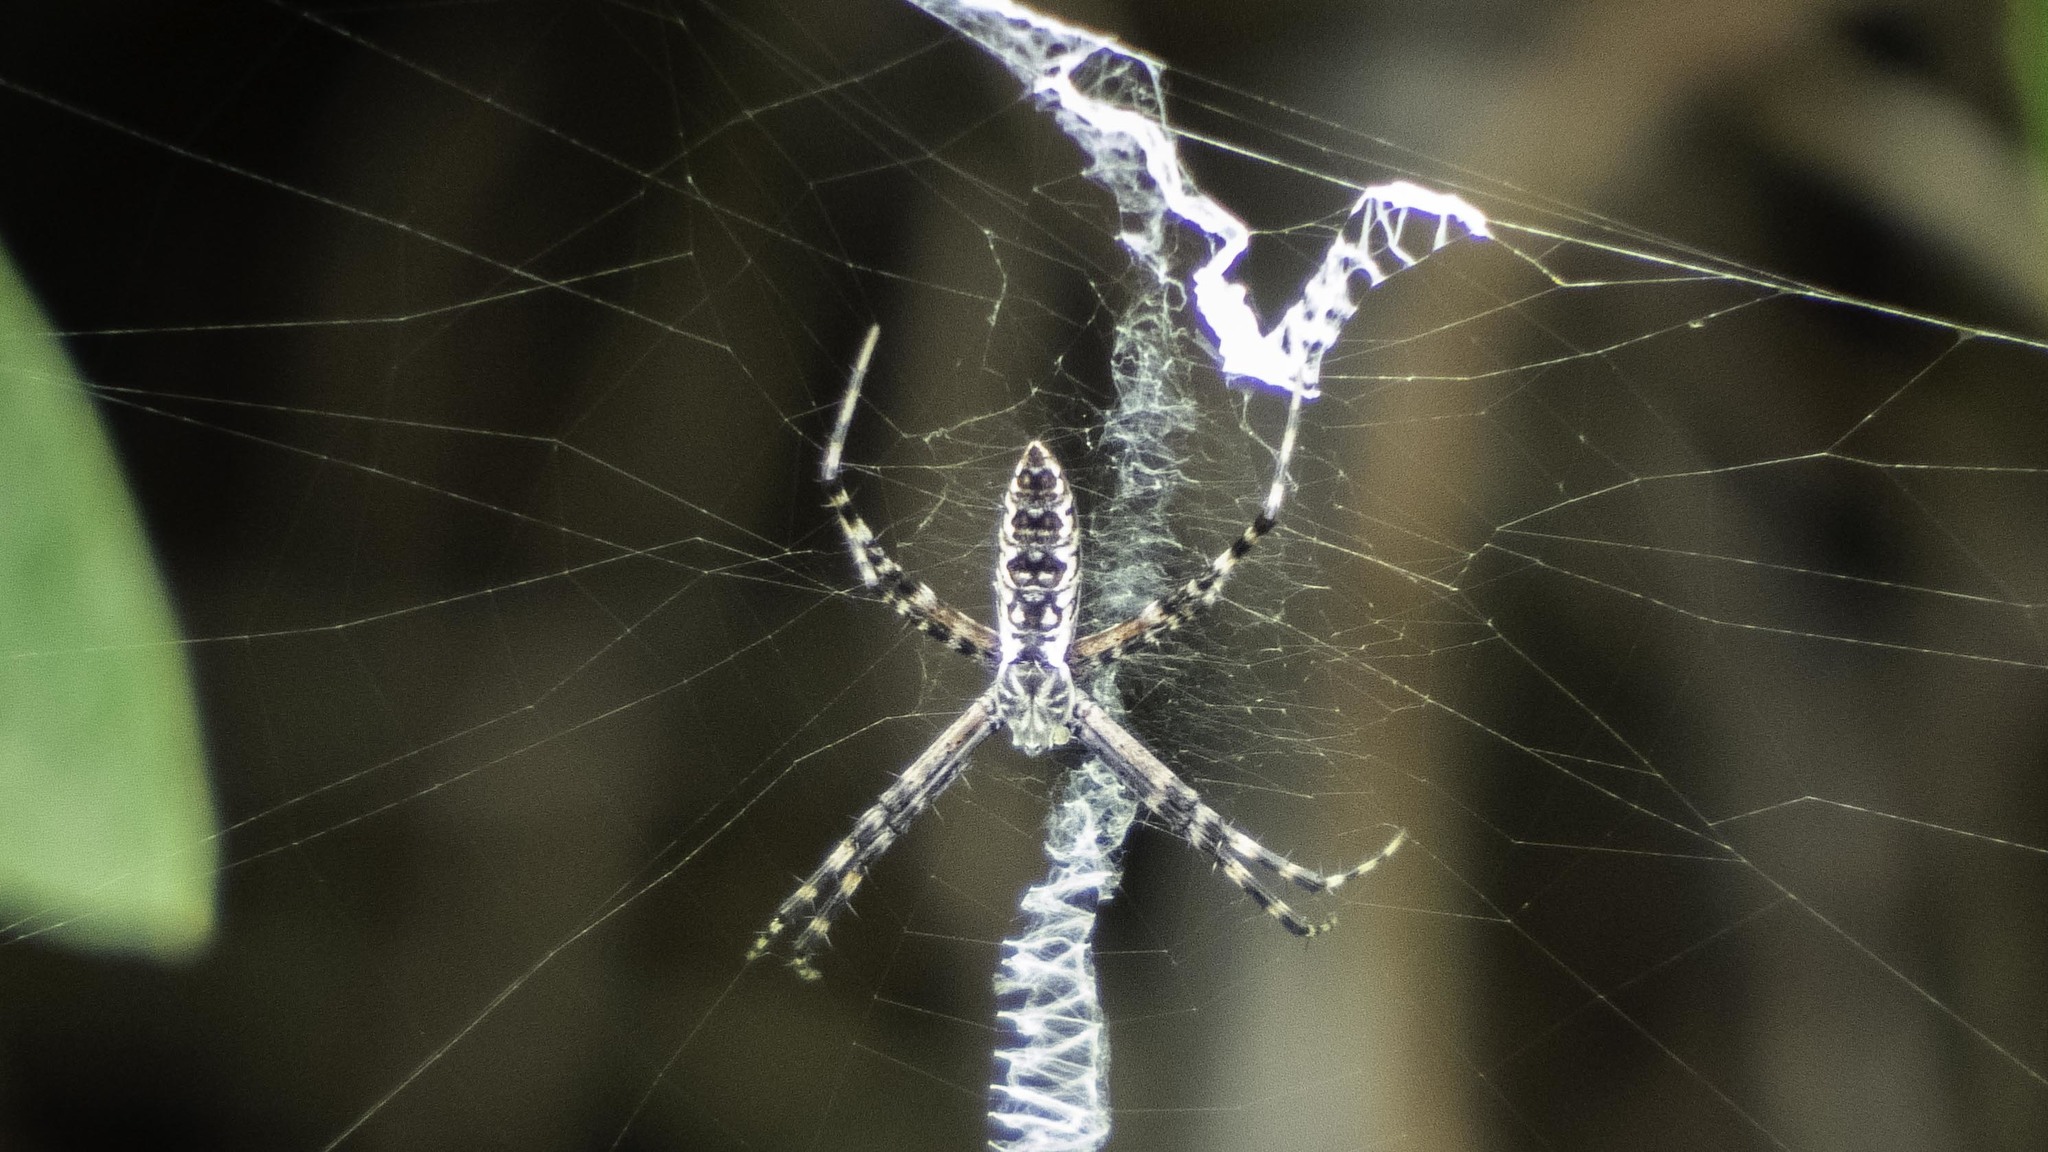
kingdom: Animalia
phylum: Arthropoda
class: Arachnida
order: Araneae
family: Araneidae
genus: Argiope
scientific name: Argiope aurantia
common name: Orb weavers
